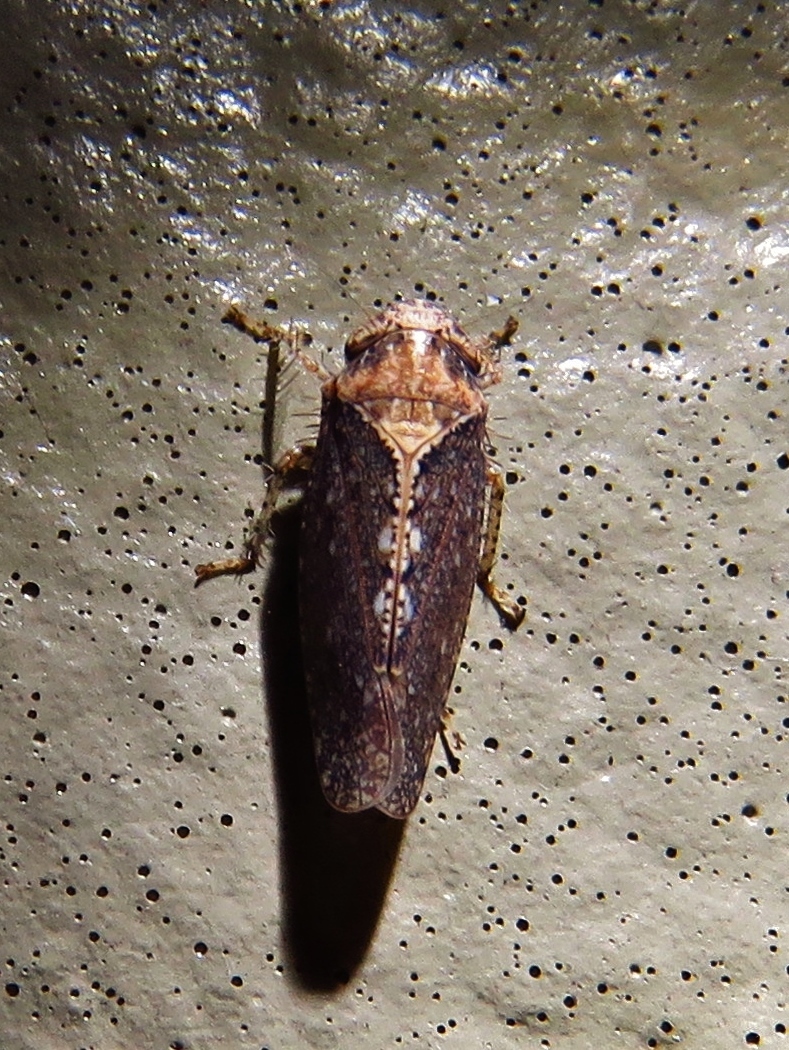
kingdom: Animalia
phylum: Arthropoda
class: Insecta
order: Hemiptera
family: Cicadellidae
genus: Excultanus
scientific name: Excultanus excultus
